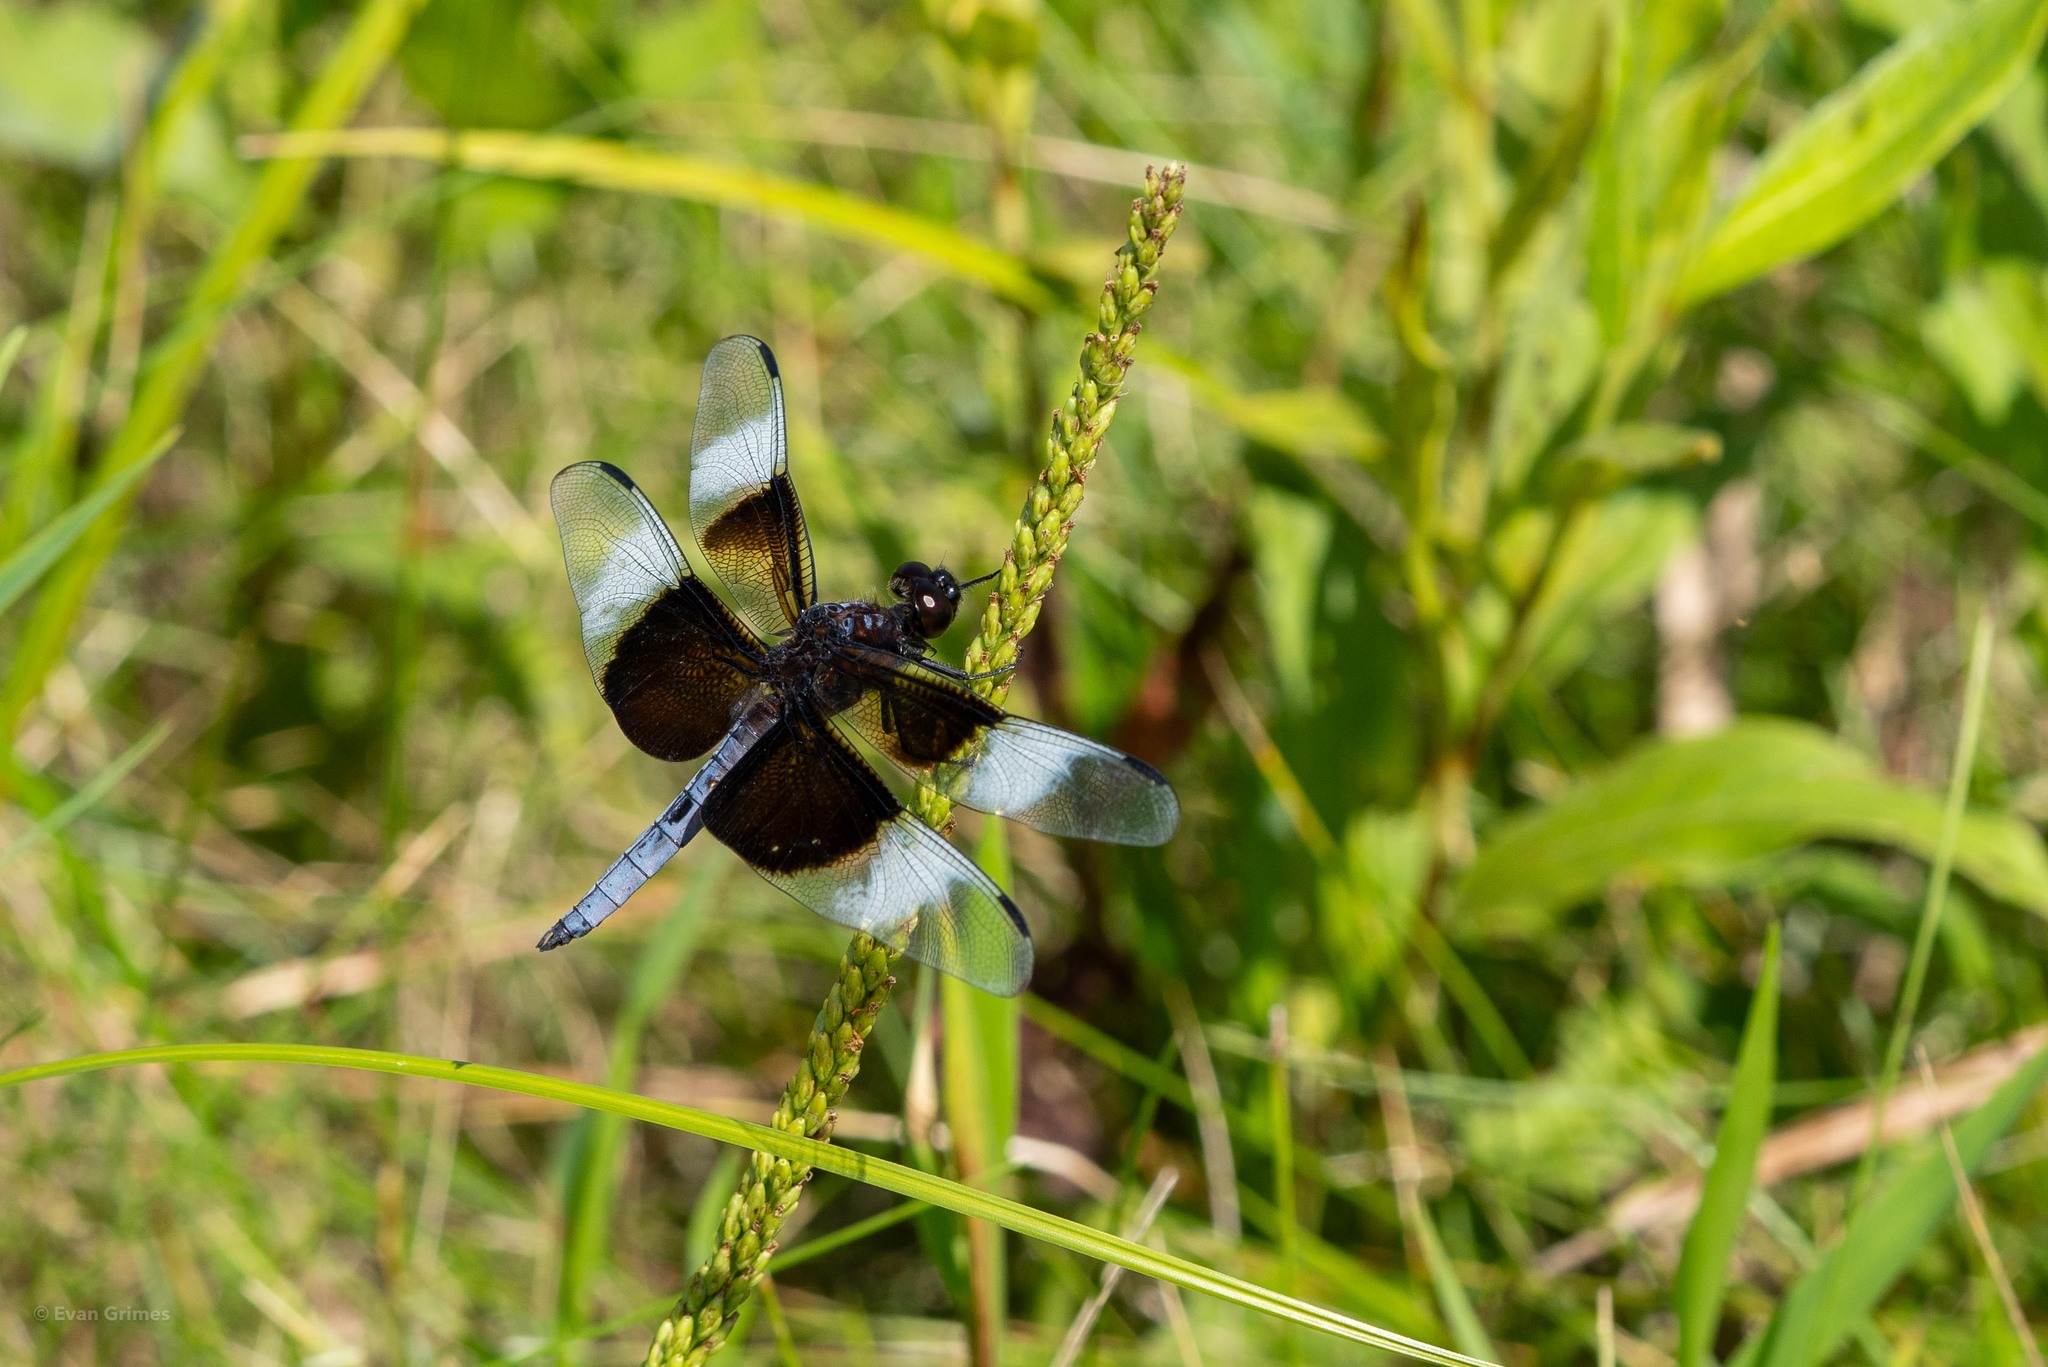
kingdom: Animalia
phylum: Arthropoda
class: Insecta
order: Odonata
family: Libellulidae
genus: Libellula
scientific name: Libellula luctuosa
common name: Widow skimmer
